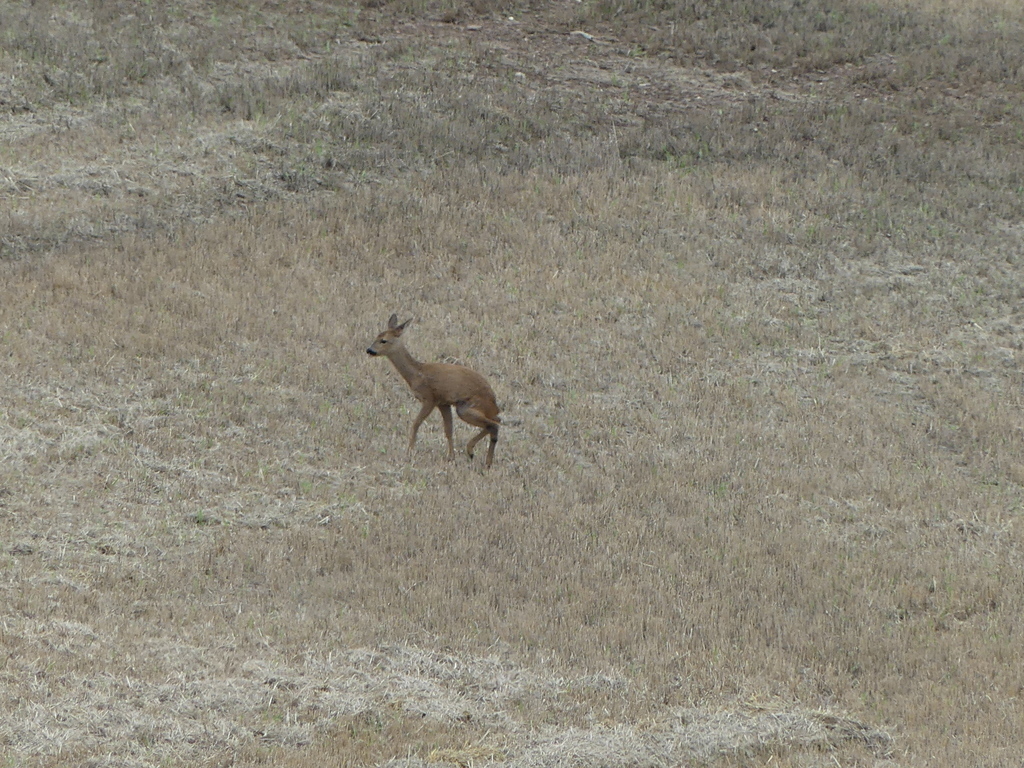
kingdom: Animalia
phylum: Chordata
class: Mammalia
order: Artiodactyla
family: Cervidae
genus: Capreolus
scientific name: Capreolus capreolus
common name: Western roe deer
